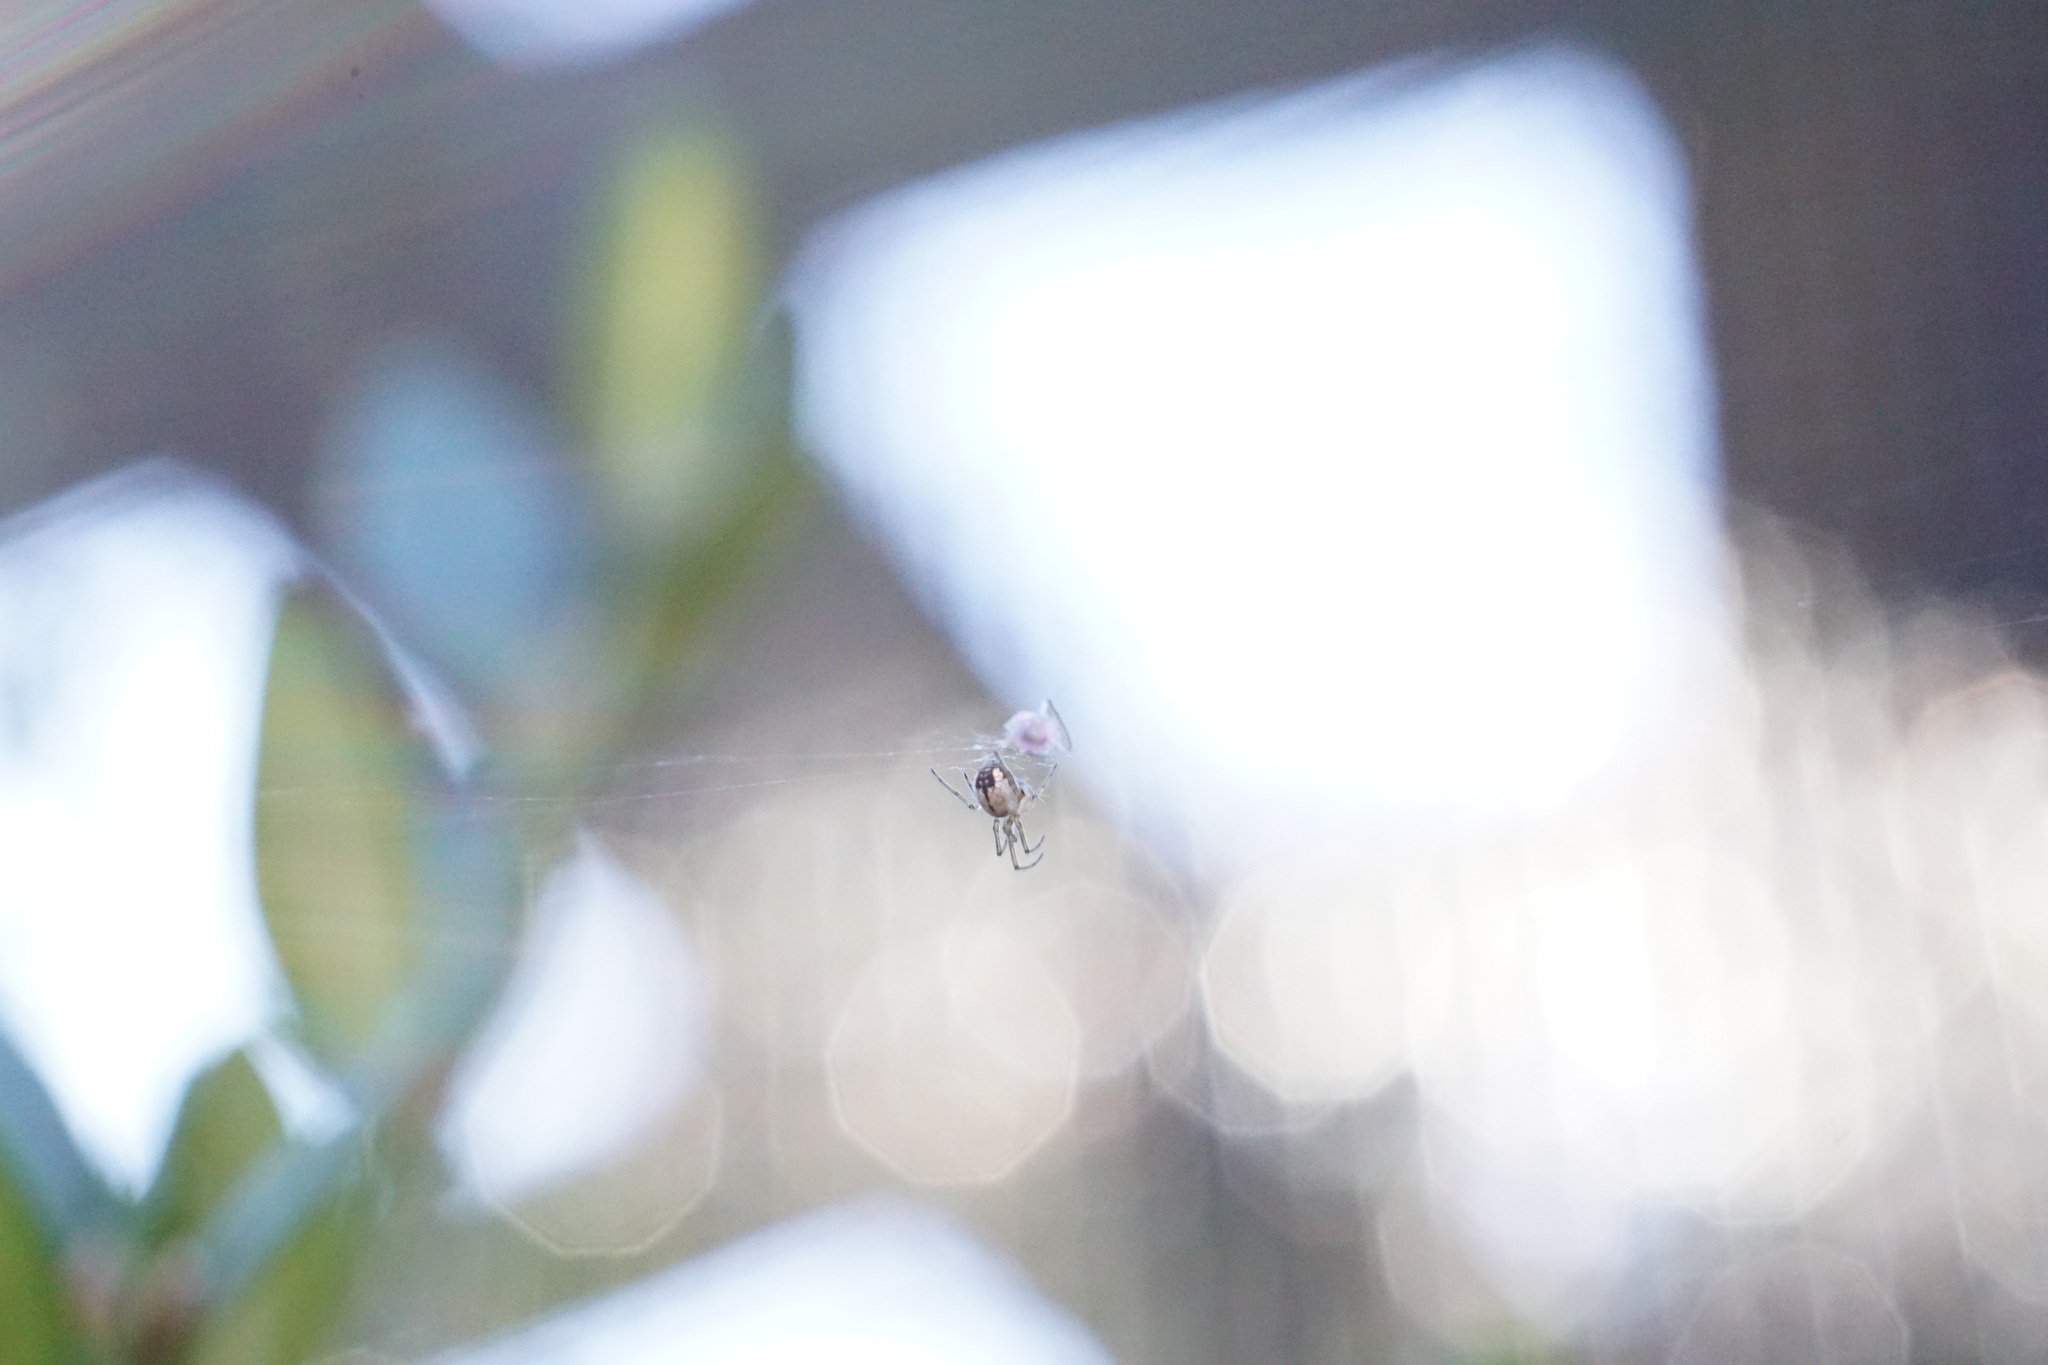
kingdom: Animalia
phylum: Arthropoda
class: Arachnida
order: Araneae
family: Tetragnathidae
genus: Leucauge
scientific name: Leucauge venusta
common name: Longjawed orb weavers
